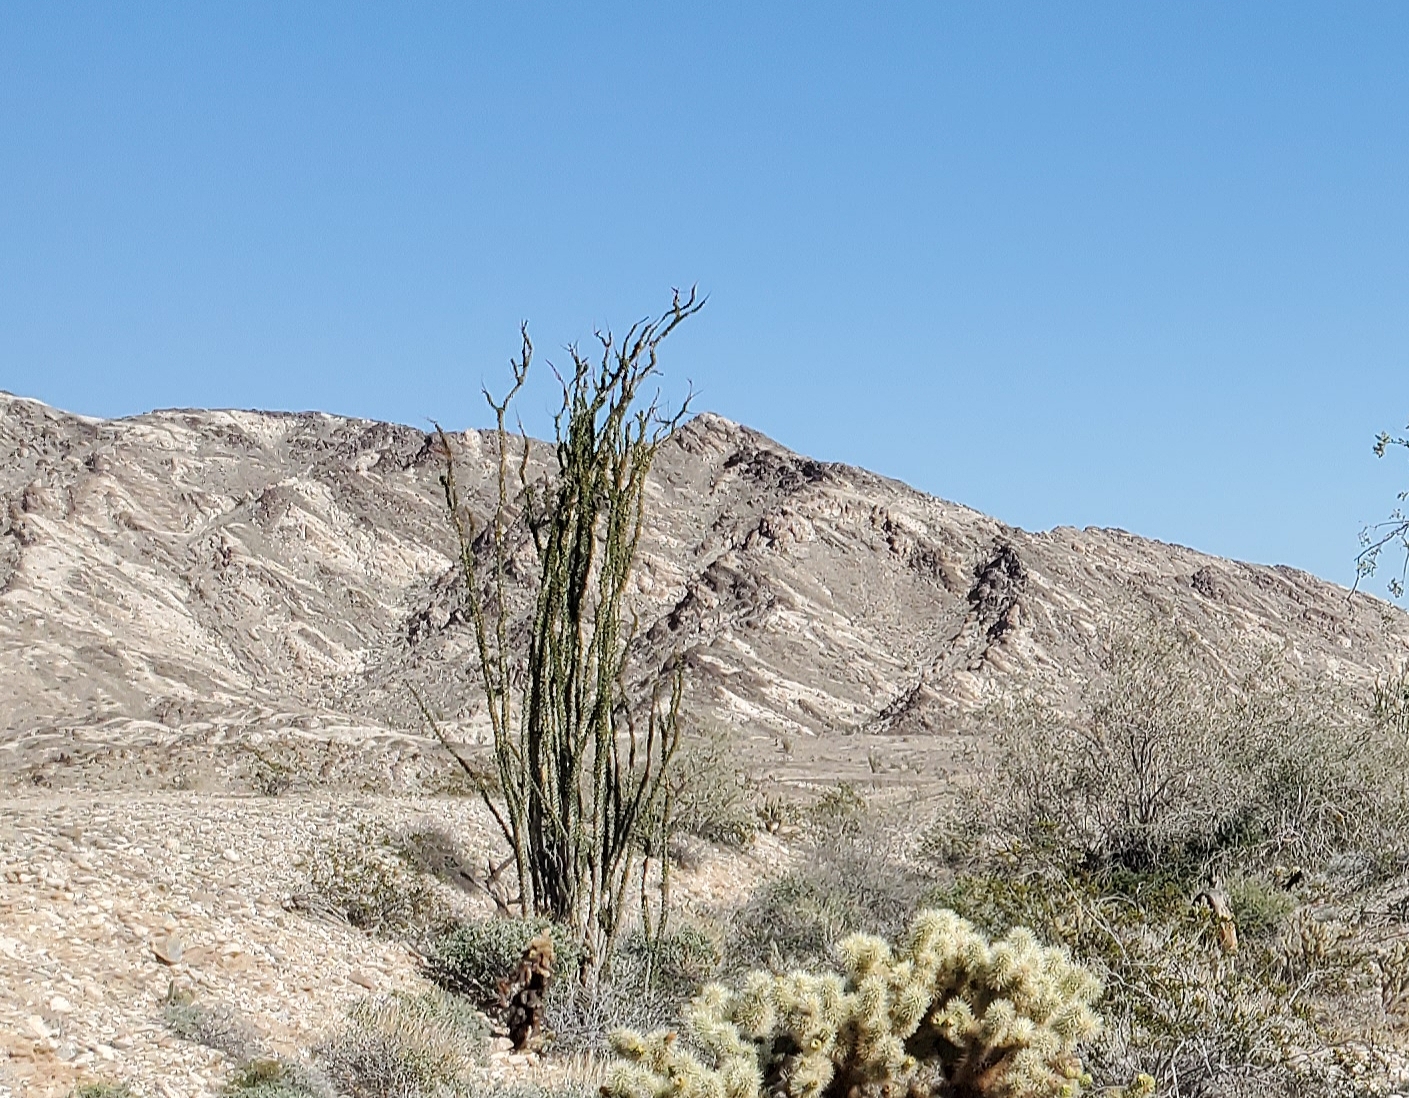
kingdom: Plantae
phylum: Tracheophyta
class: Magnoliopsida
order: Ericales
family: Fouquieriaceae
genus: Fouquieria
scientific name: Fouquieria splendens
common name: Vine-cactus
